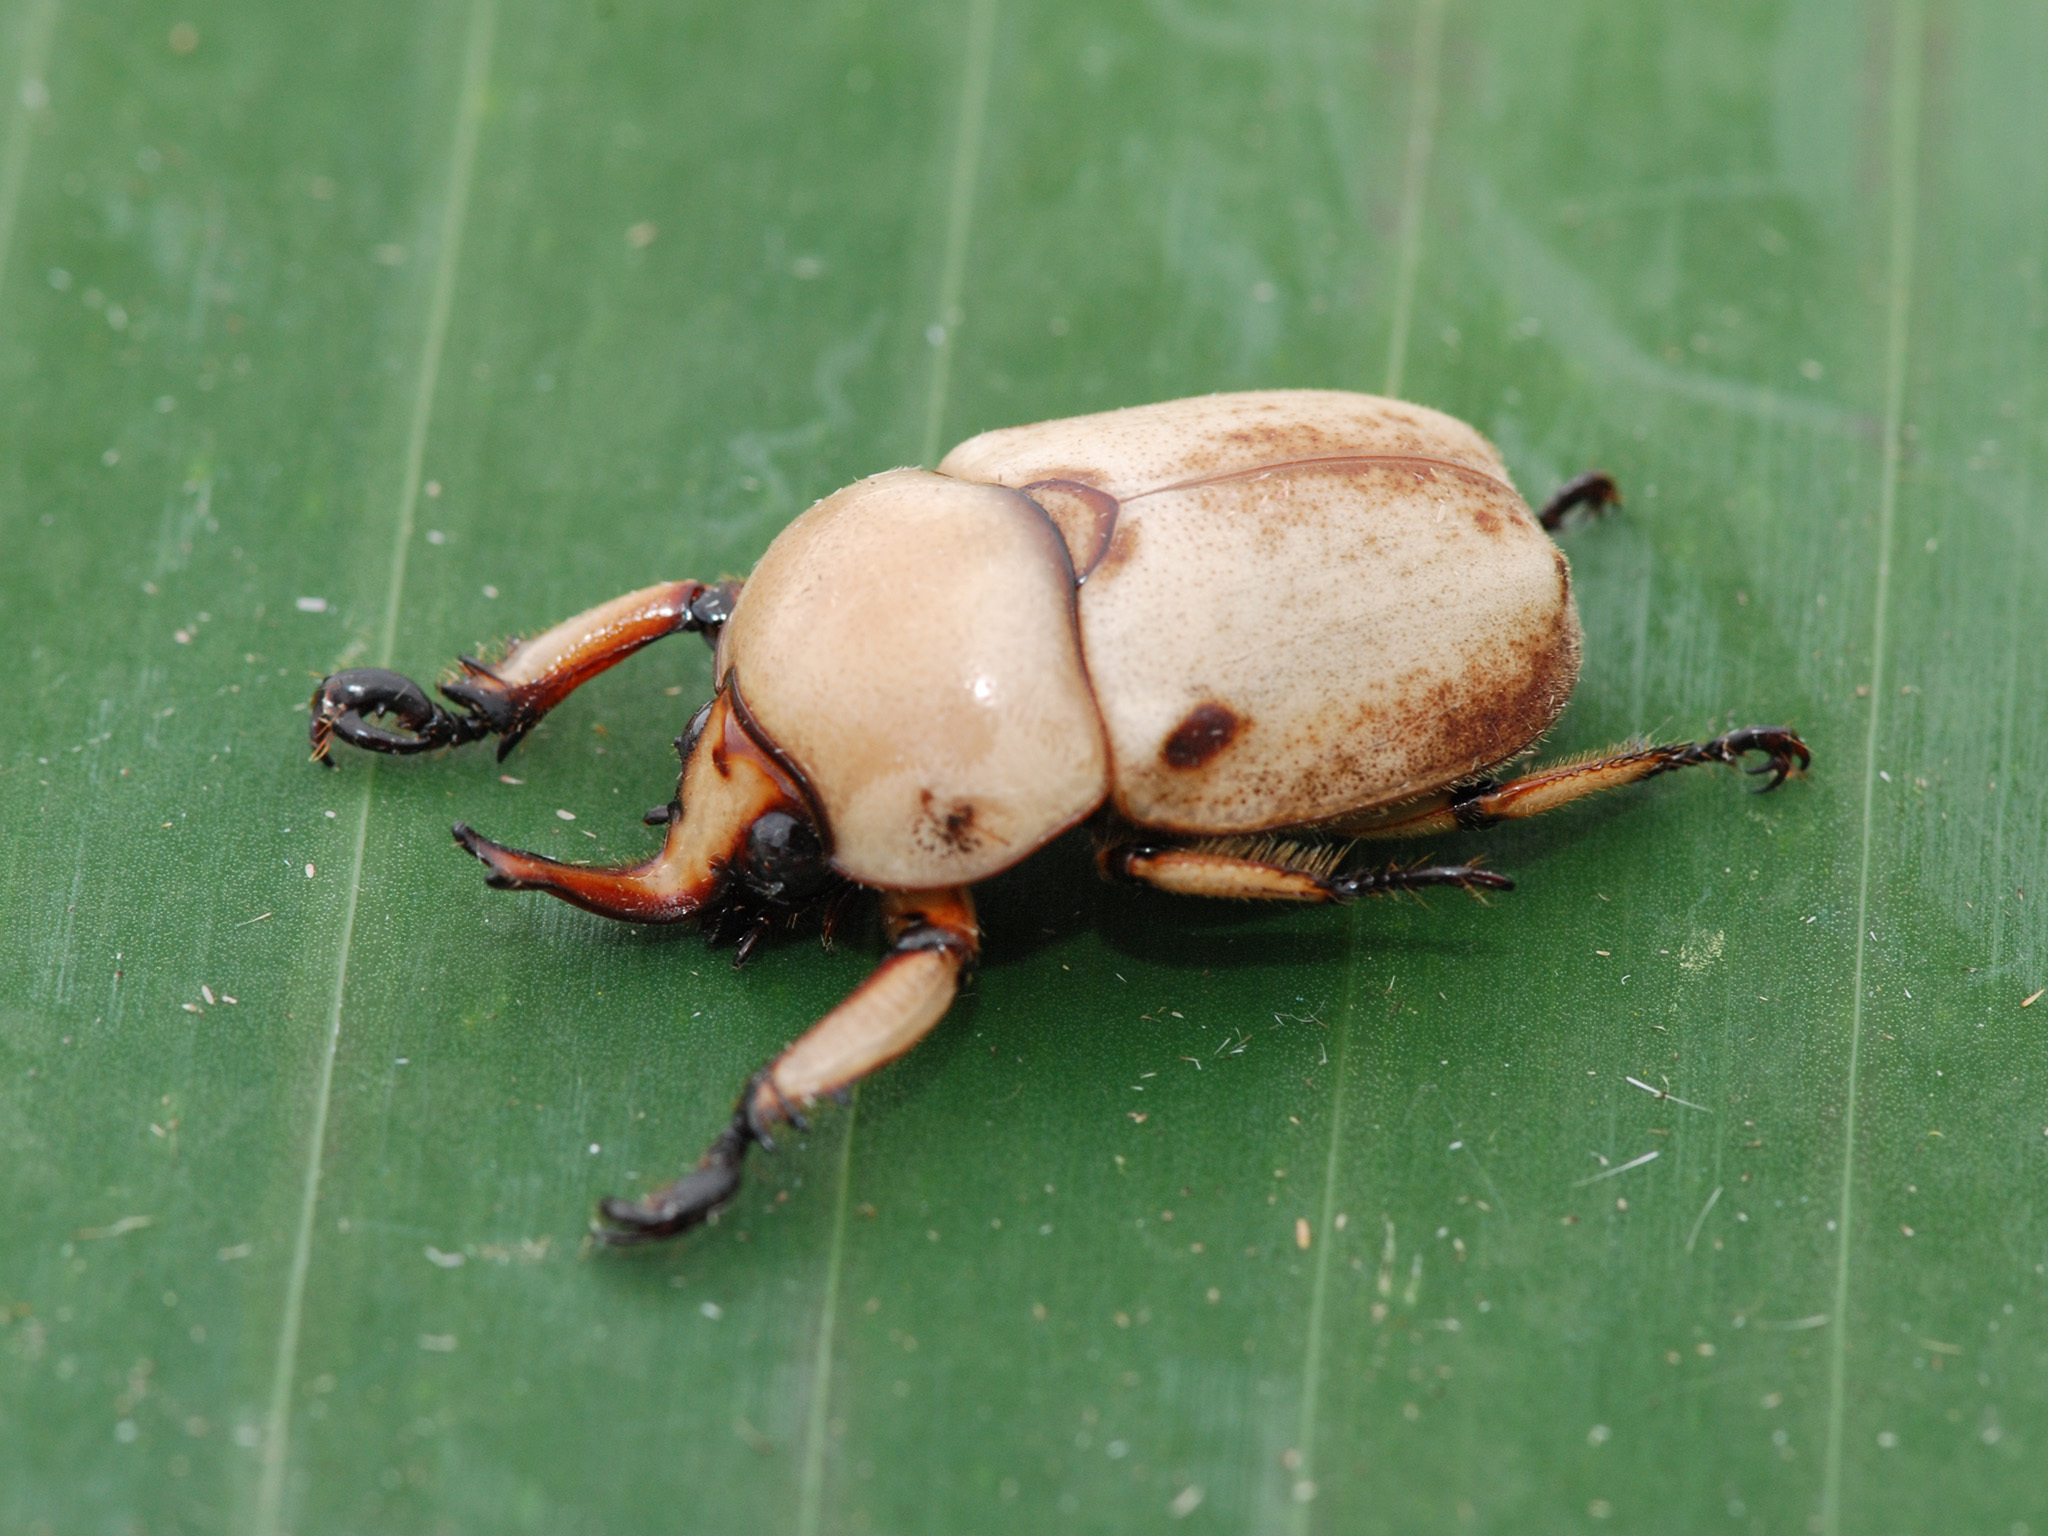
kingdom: Animalia
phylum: Arthropoda
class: Insecta
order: Coleoptera
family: Scarabaeidae
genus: Ceroplophana
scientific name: Ceroplophana malaysiana
